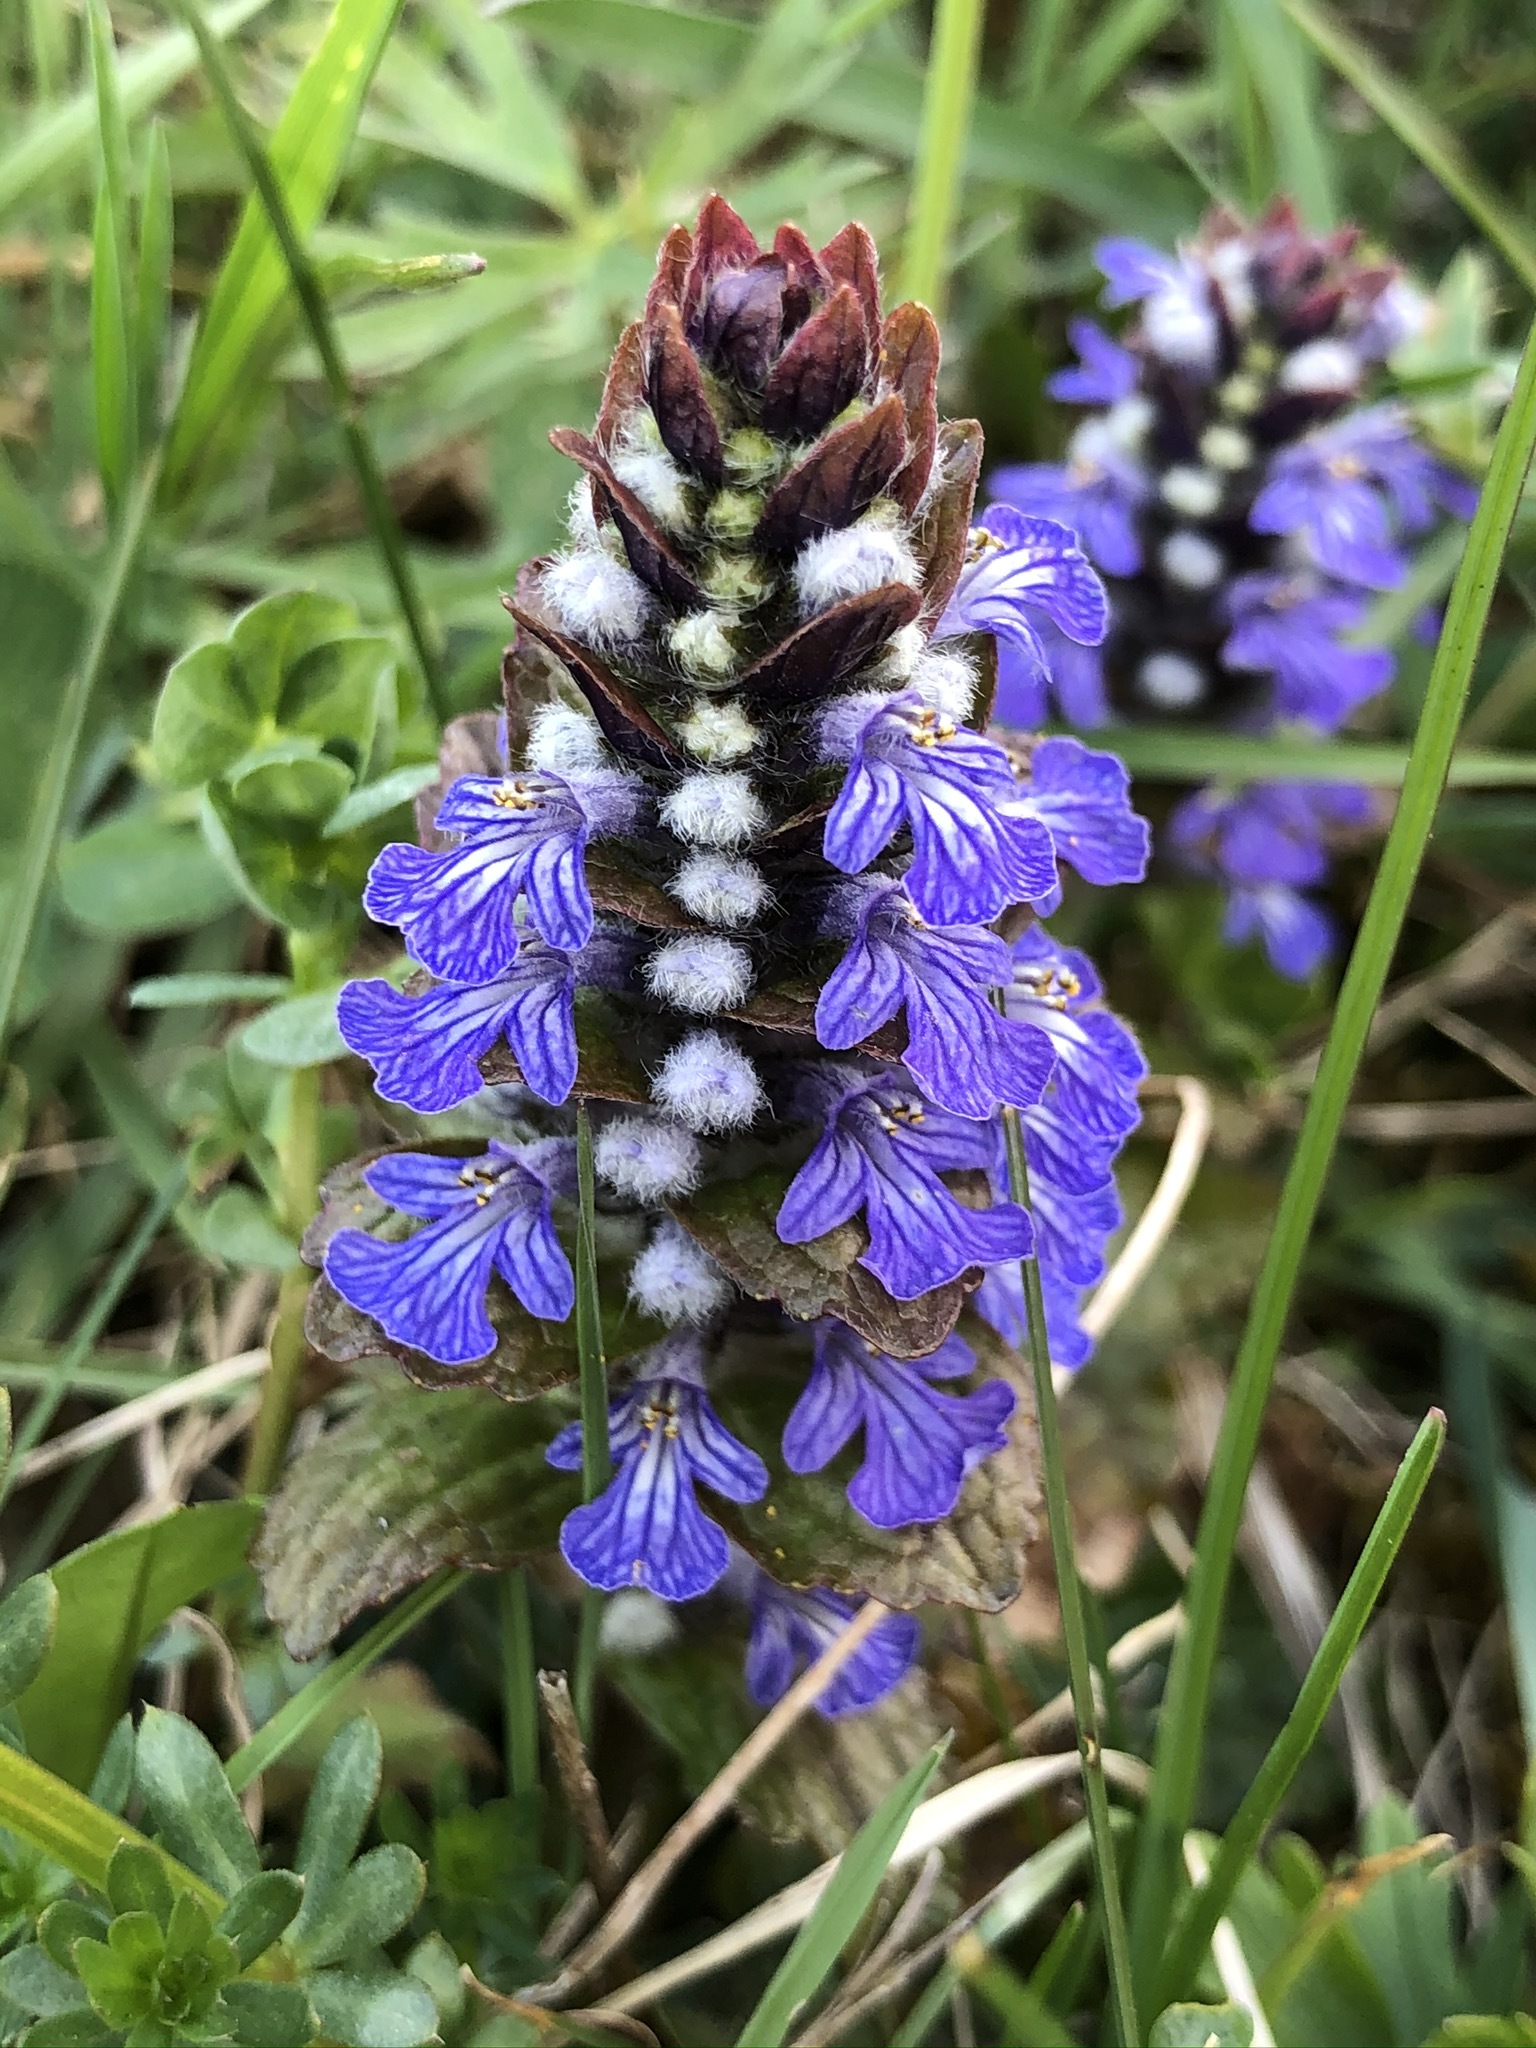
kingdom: Plantae
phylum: Tracheophyta
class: Magnoliopsida
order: Lamiales
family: Lamiaceae
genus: Ajuga
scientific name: Ajuga reptans
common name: Bugle
